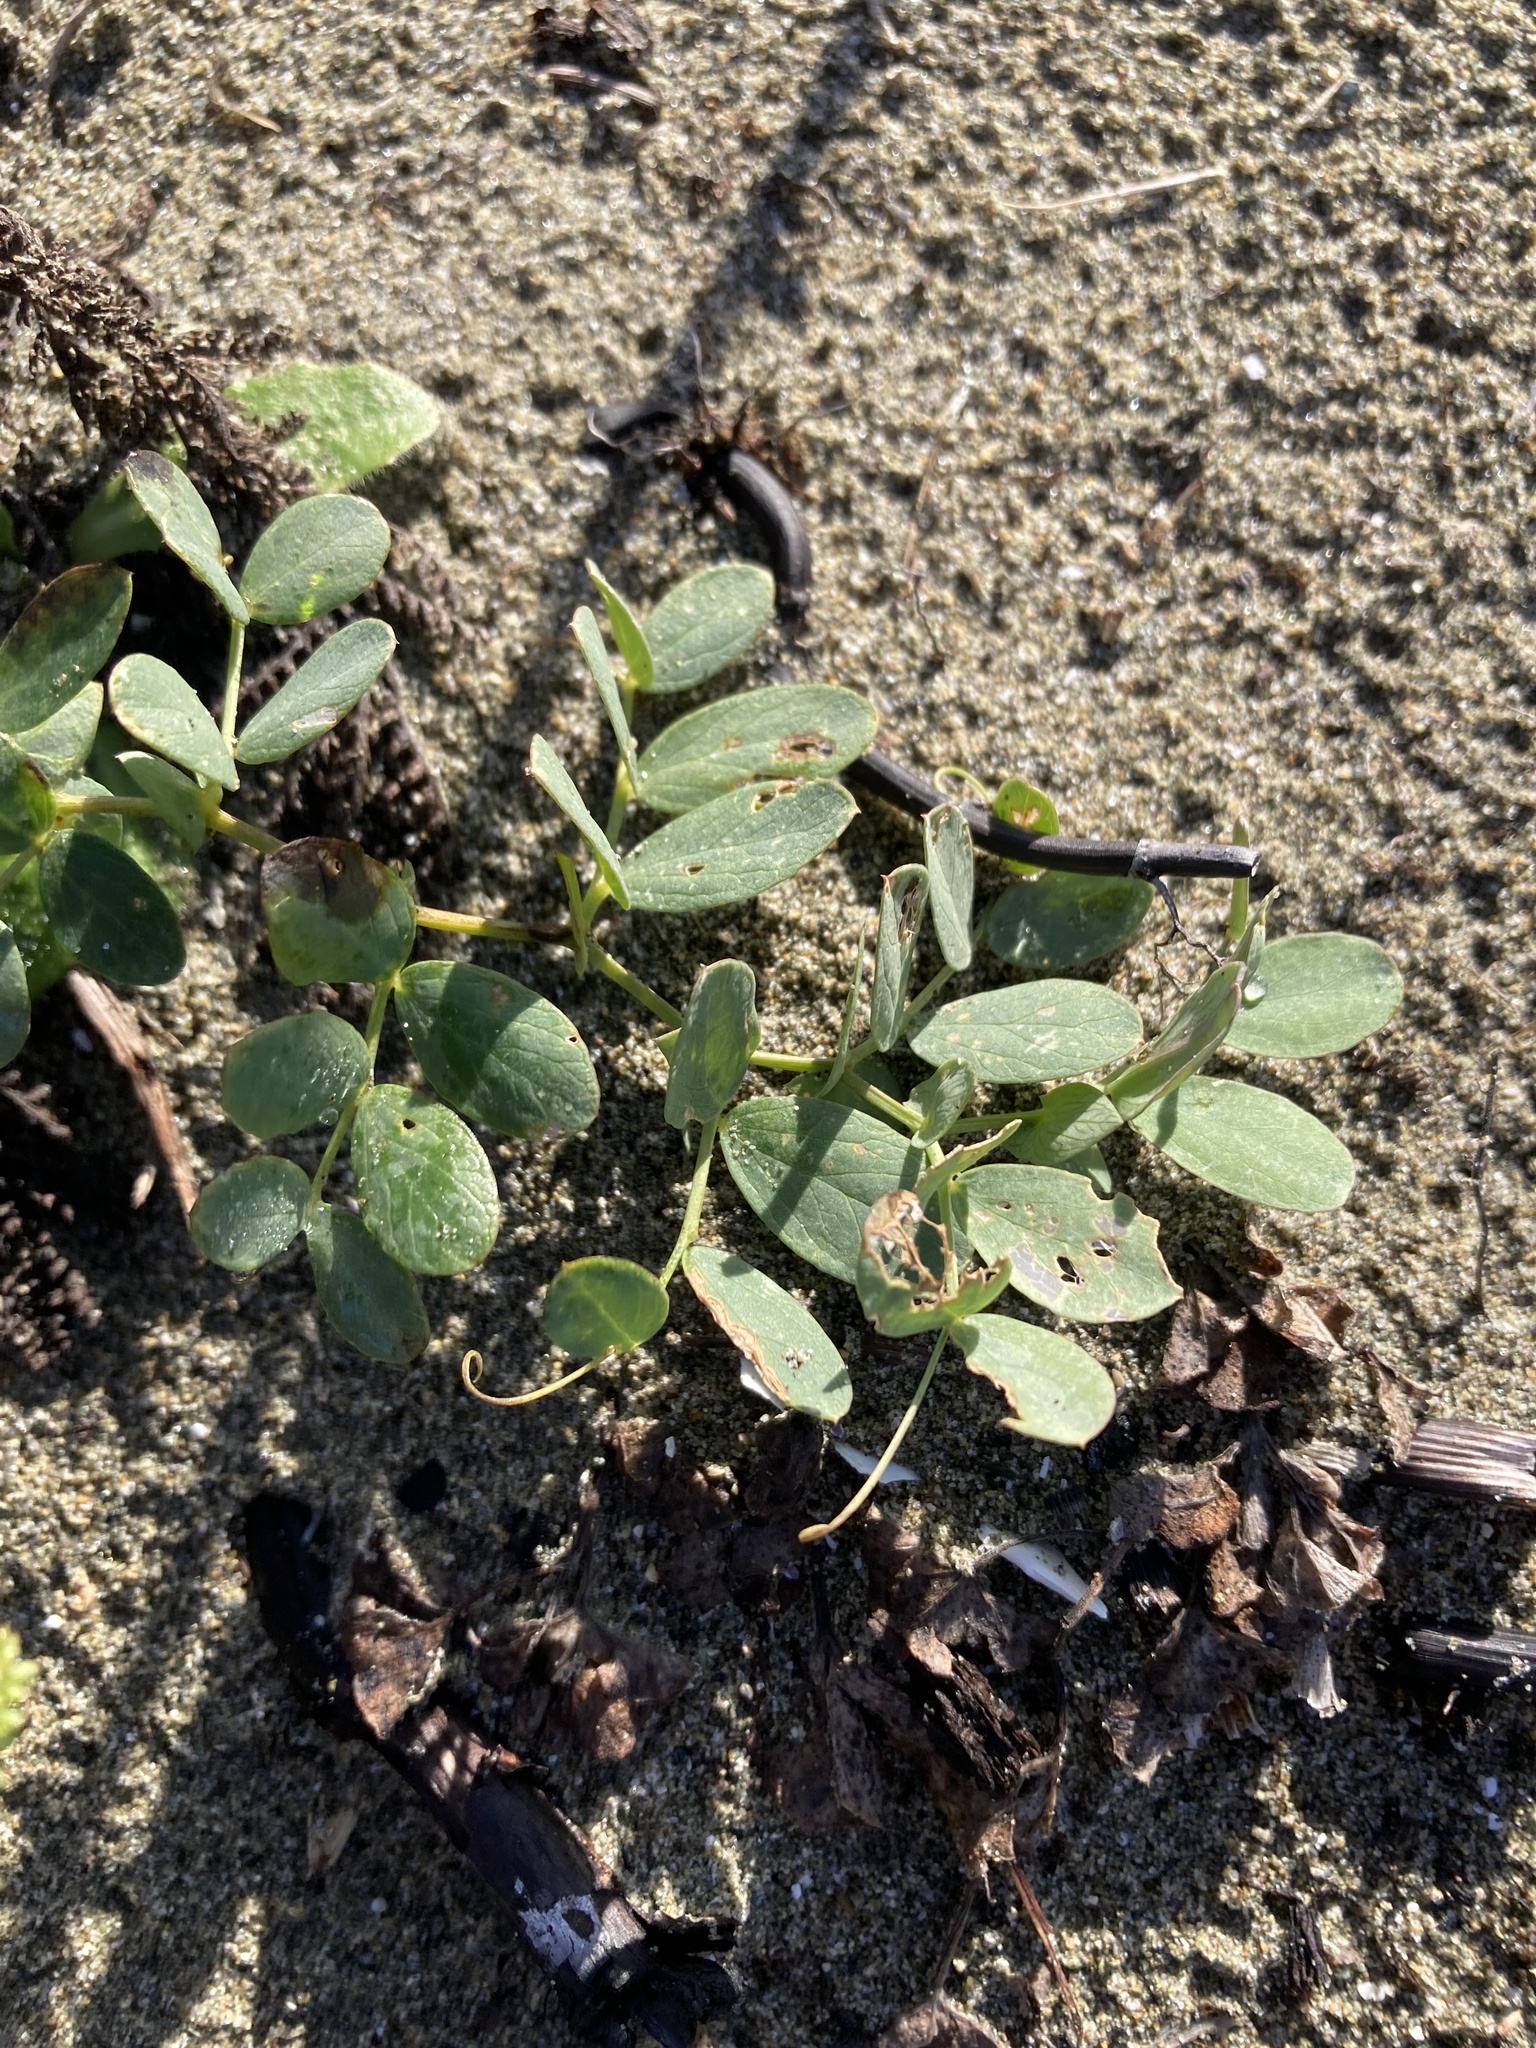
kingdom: Plantae
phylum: Tracheophyta
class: Magnoliopsida
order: Fabales
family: Fabaceae
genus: Lathyrus
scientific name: Lathyrus japonicus
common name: Sea pea
